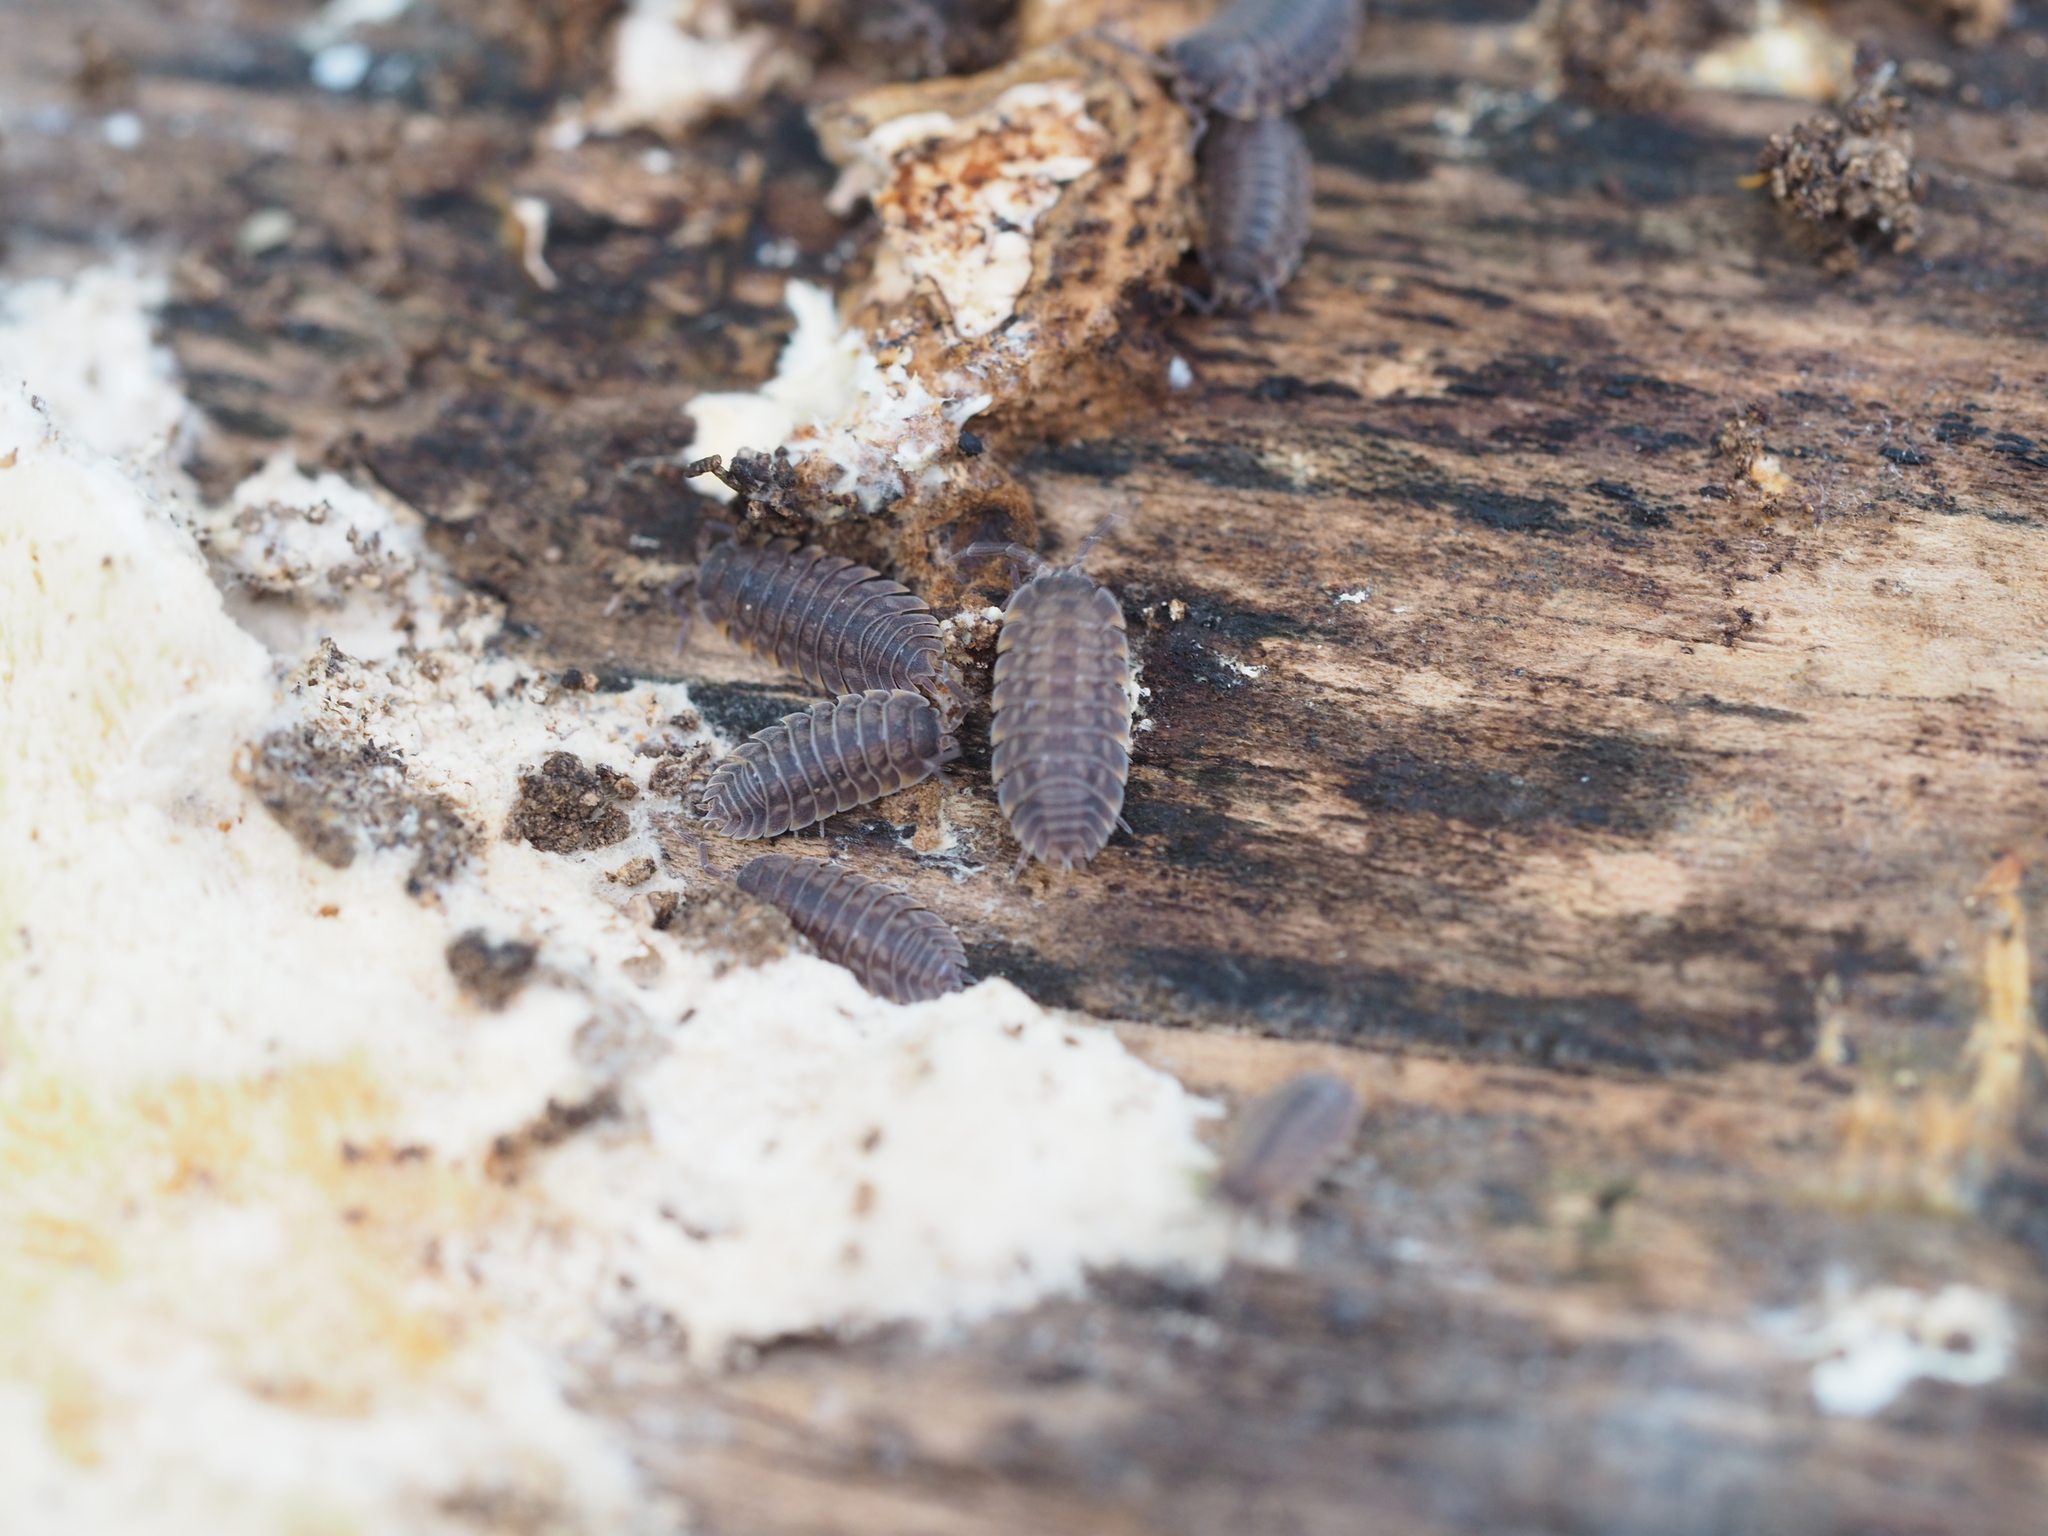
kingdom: Animalia
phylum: Arthropoda
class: Malacostraca
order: Isopoda
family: Trachelipodidae
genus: Trachelipus
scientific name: Trachelipus ratzeburgii
